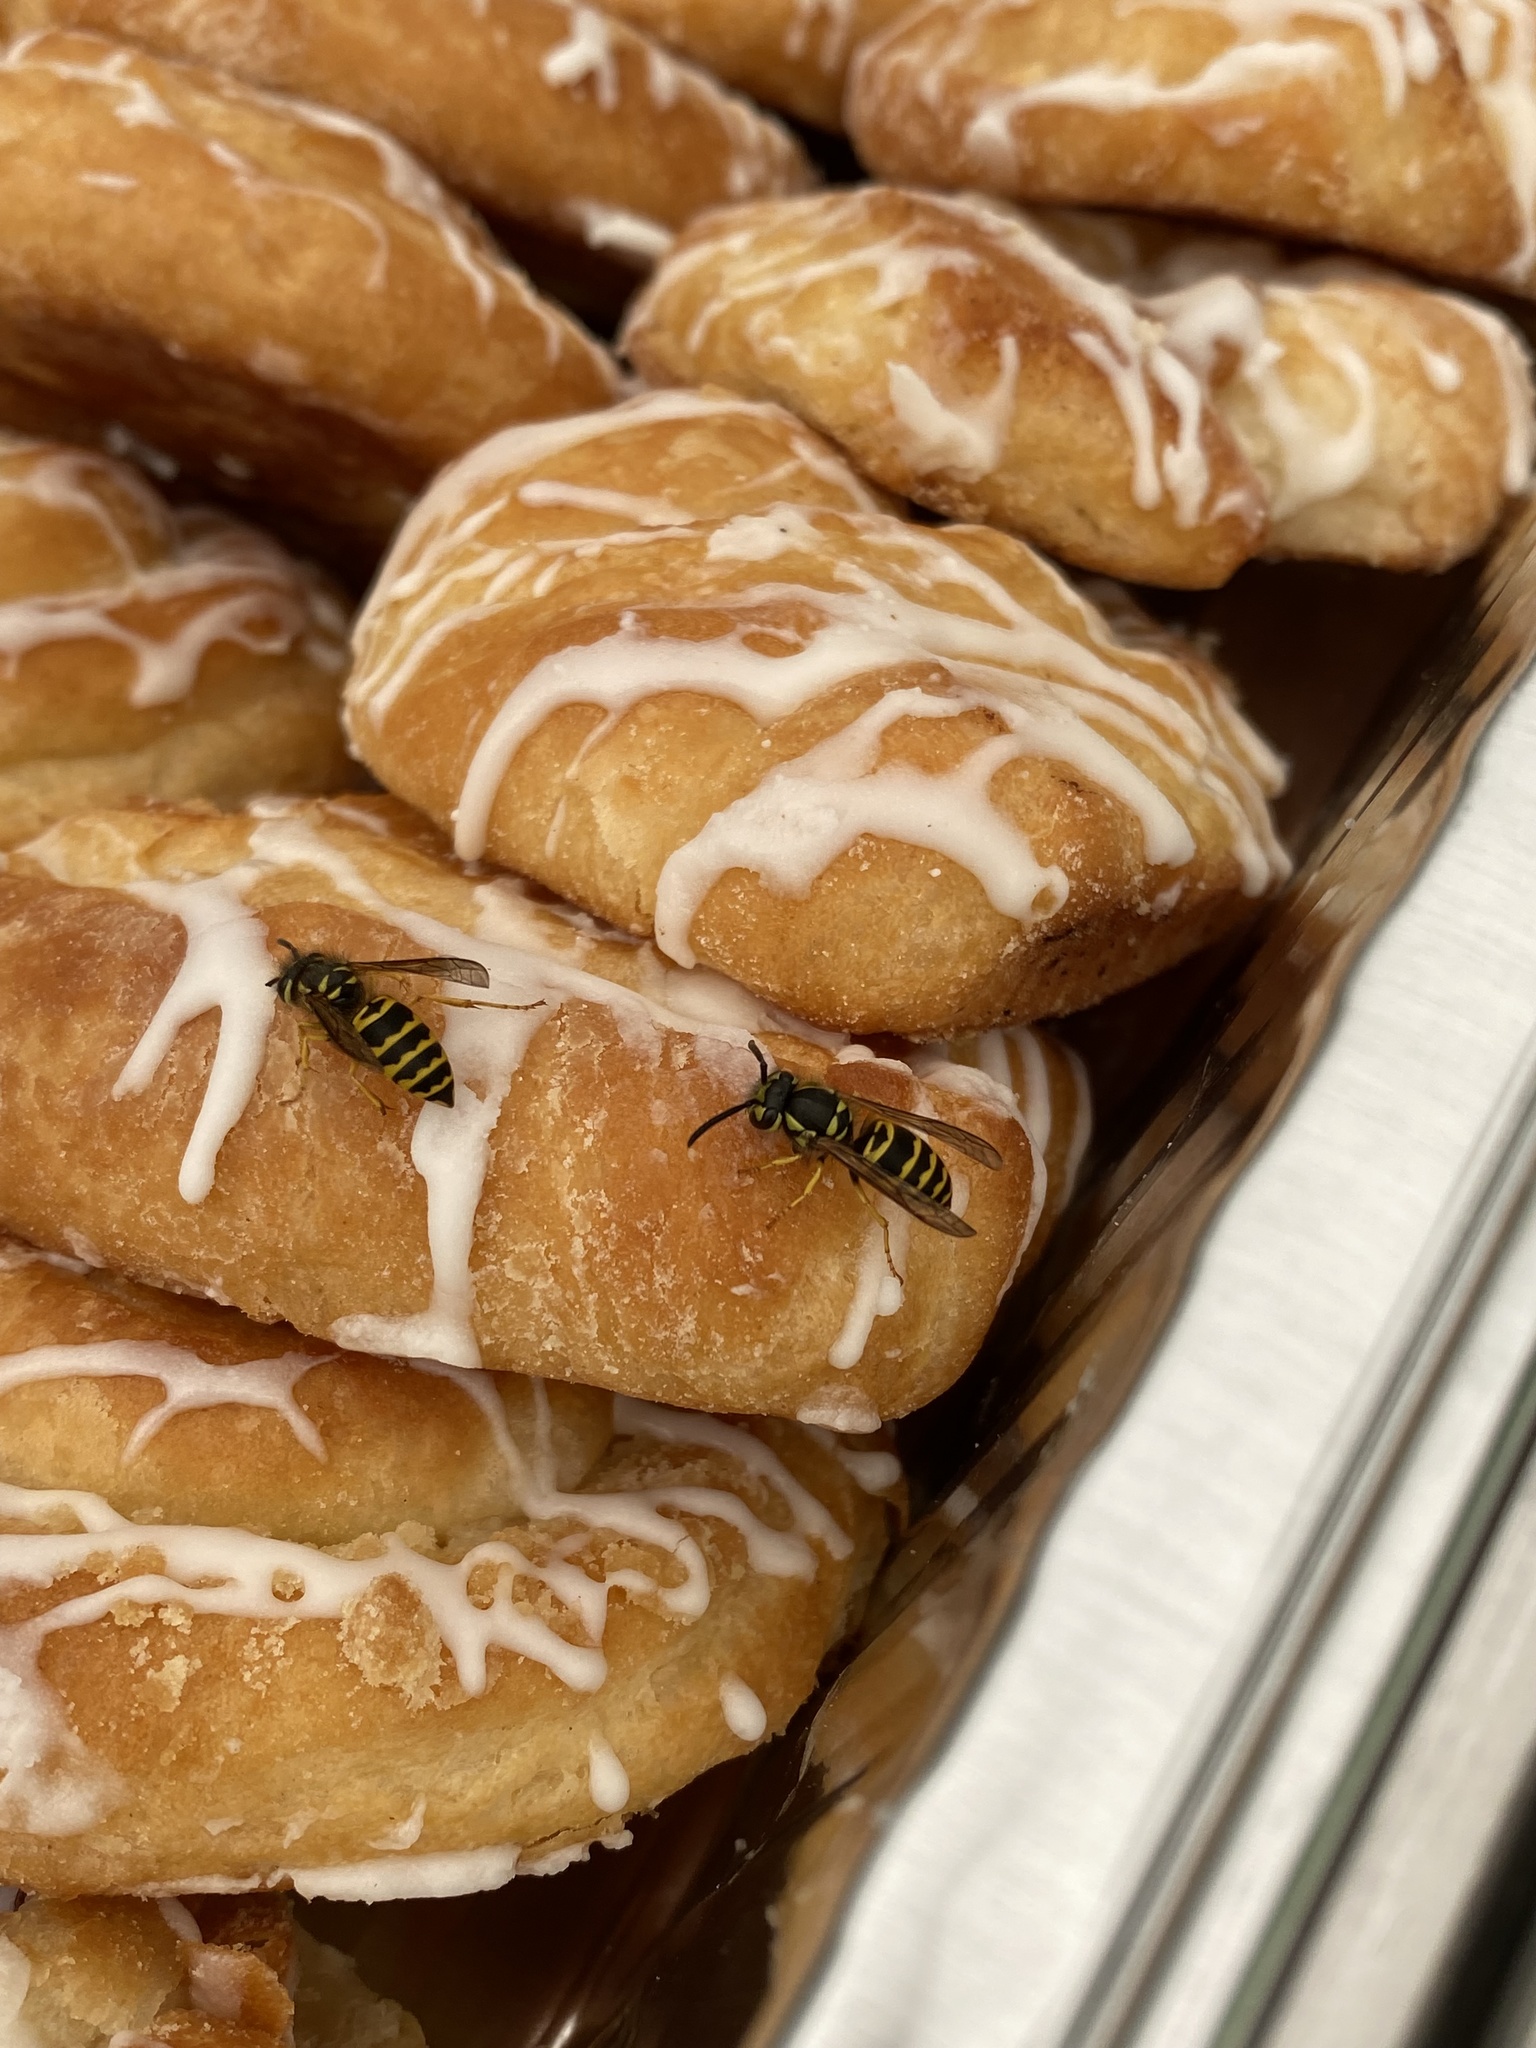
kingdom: Animalia
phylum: Arthropoda
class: Insecta
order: Hymenoptera
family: Vespidae
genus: Vespula
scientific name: Vespula maculifrons
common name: Eastern yellowjacket
